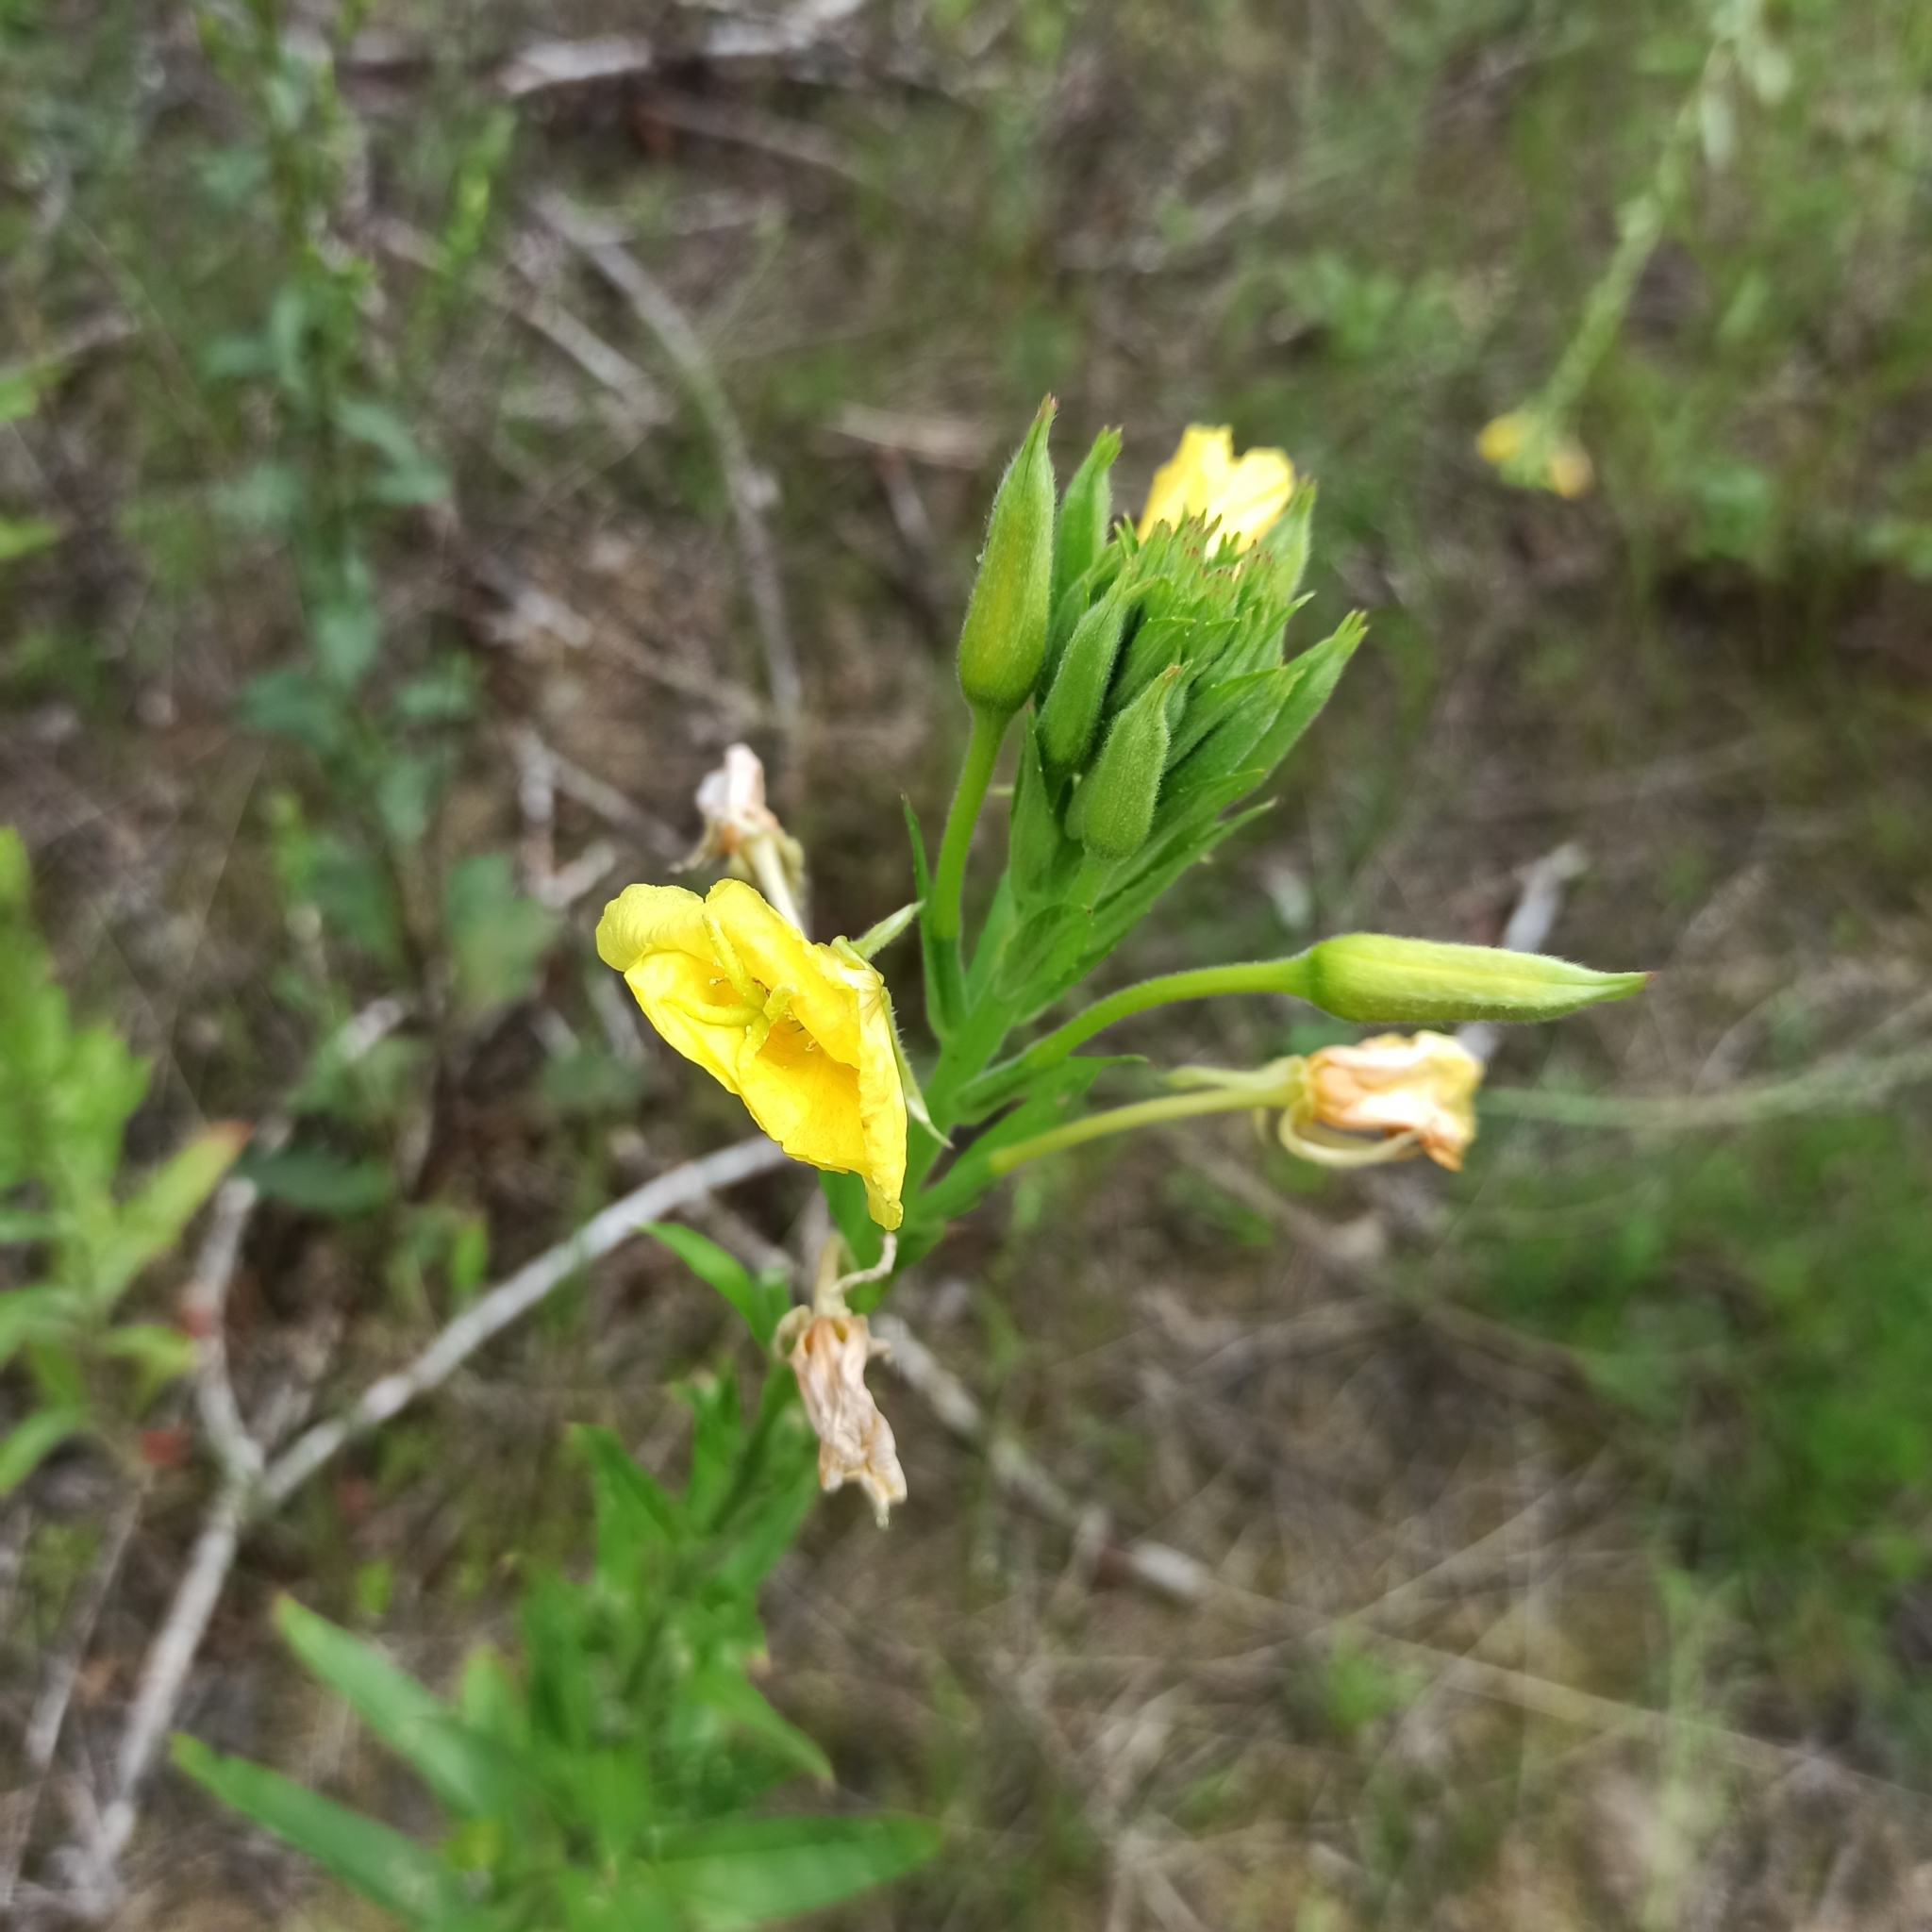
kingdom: Plantae
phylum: Tracheophyta
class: Magnoliopsida
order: Myrtales
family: Onagraceae
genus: Oenothera
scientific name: Oenothera biennis
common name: Common evening-primrose
